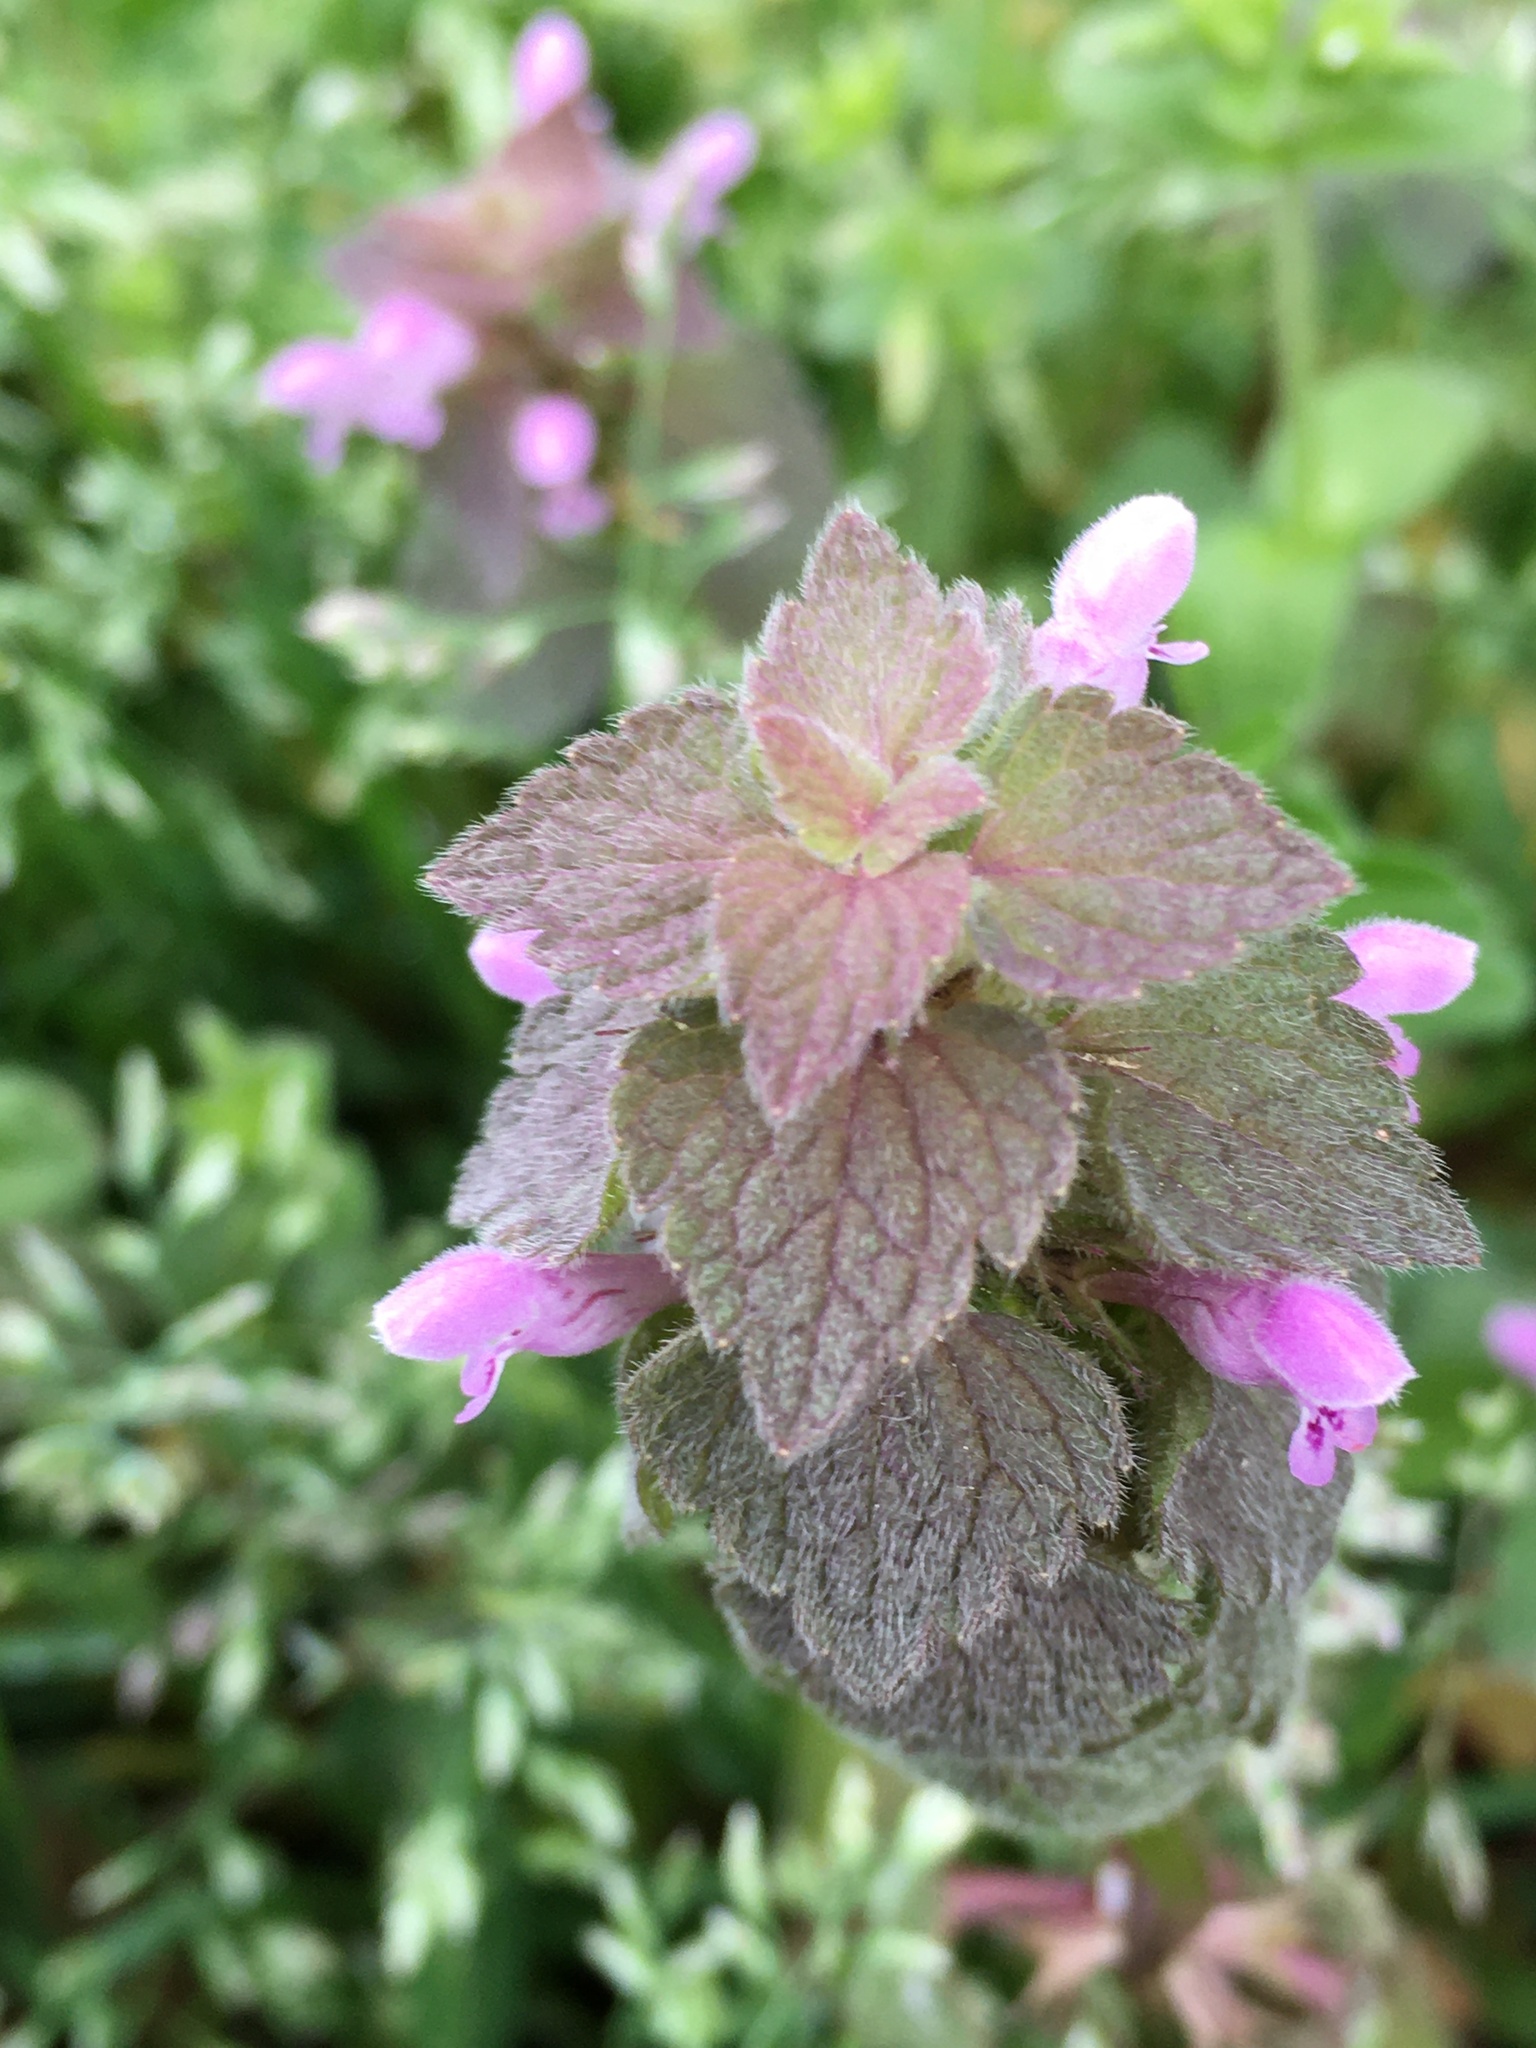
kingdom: Plantae
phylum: Tracheophyta
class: Magnoliopsida
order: Lamiales
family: Lamiaceae
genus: Lamium
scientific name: Lamium purpureum
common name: Red dead-nettle
